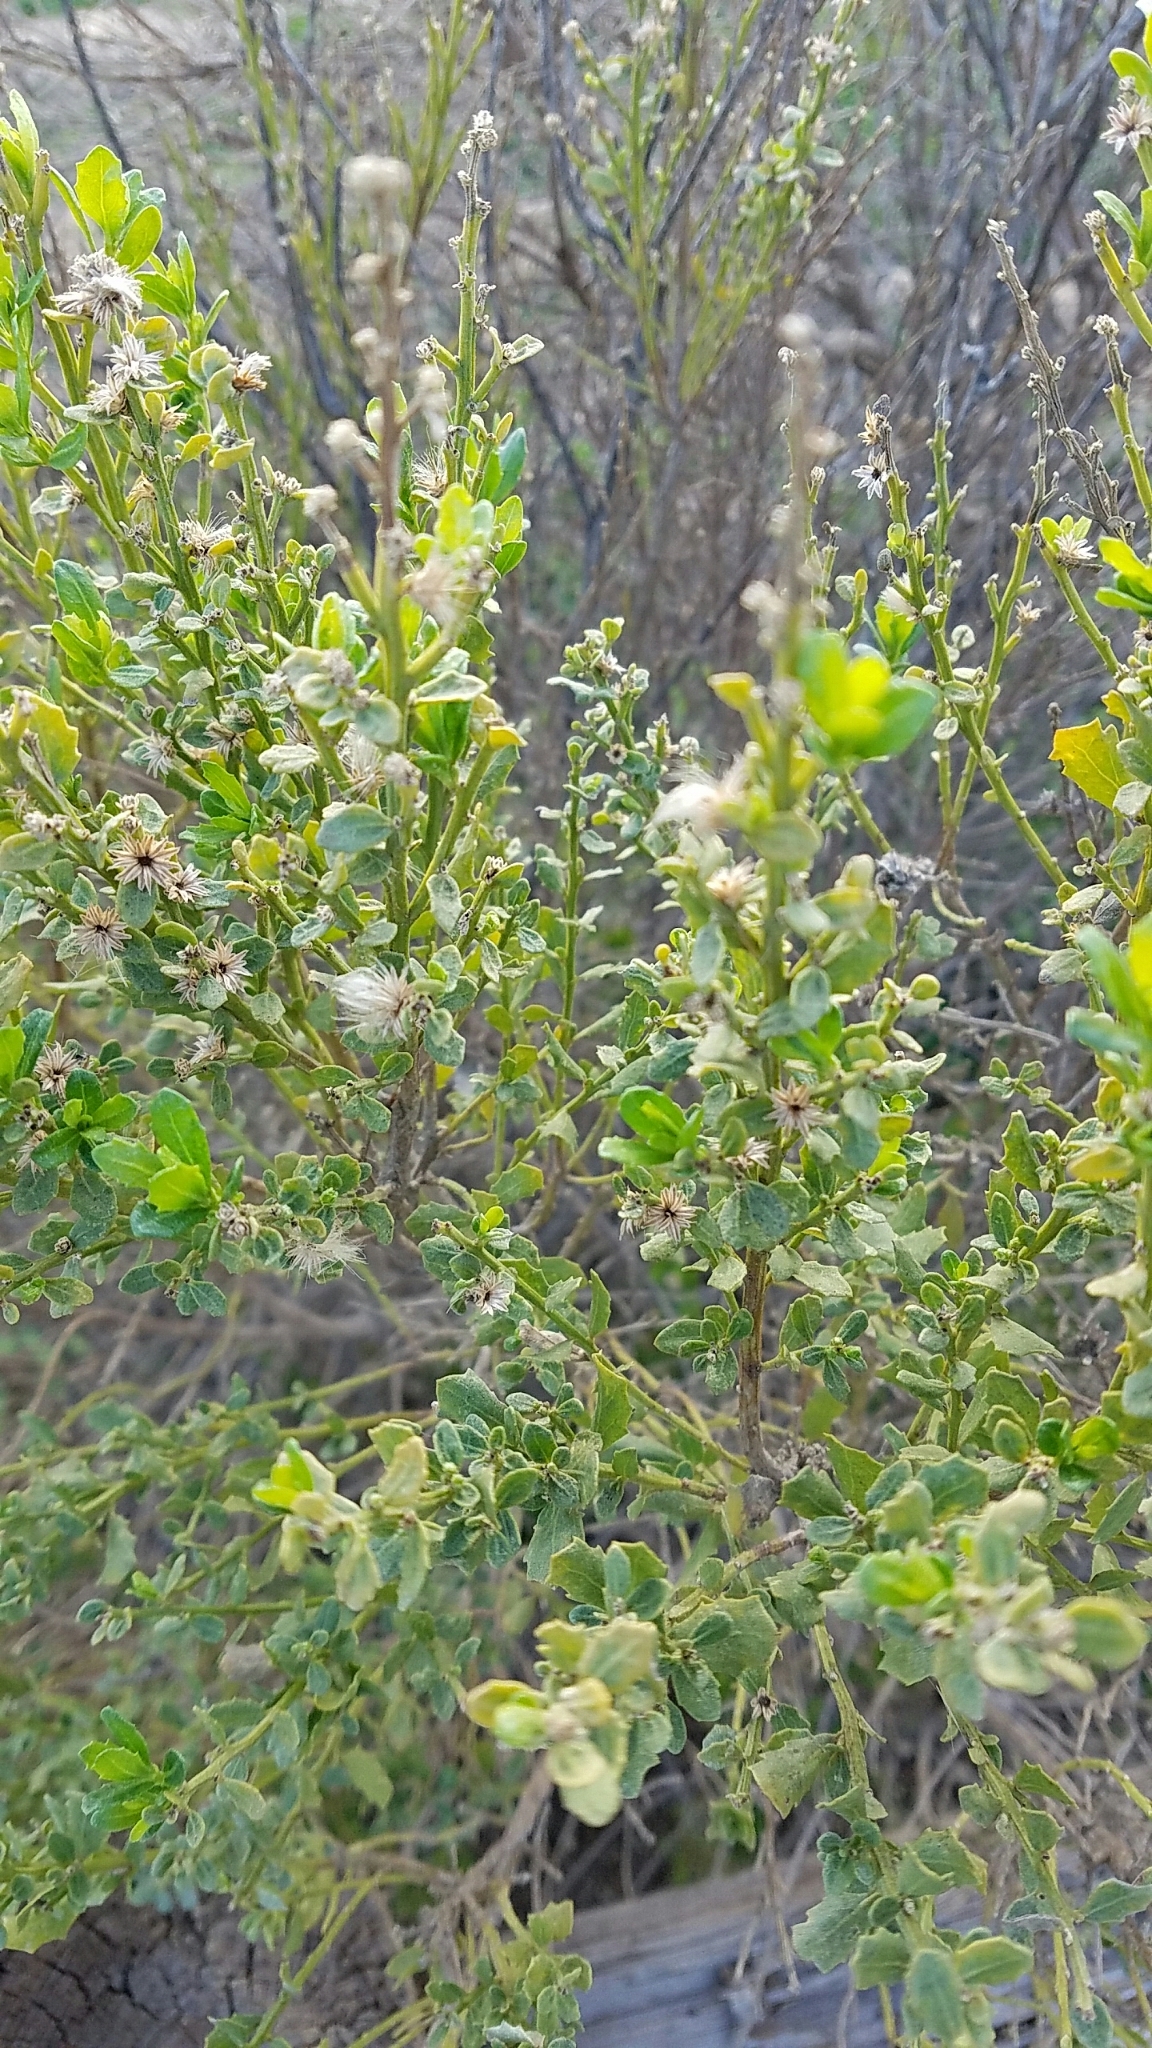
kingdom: Plantae
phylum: Tracheophyta
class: Magnoliopsida
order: Asterales
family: Asteraceae
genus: Baccharis
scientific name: Baccharis pilularis
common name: Coyotebrush
